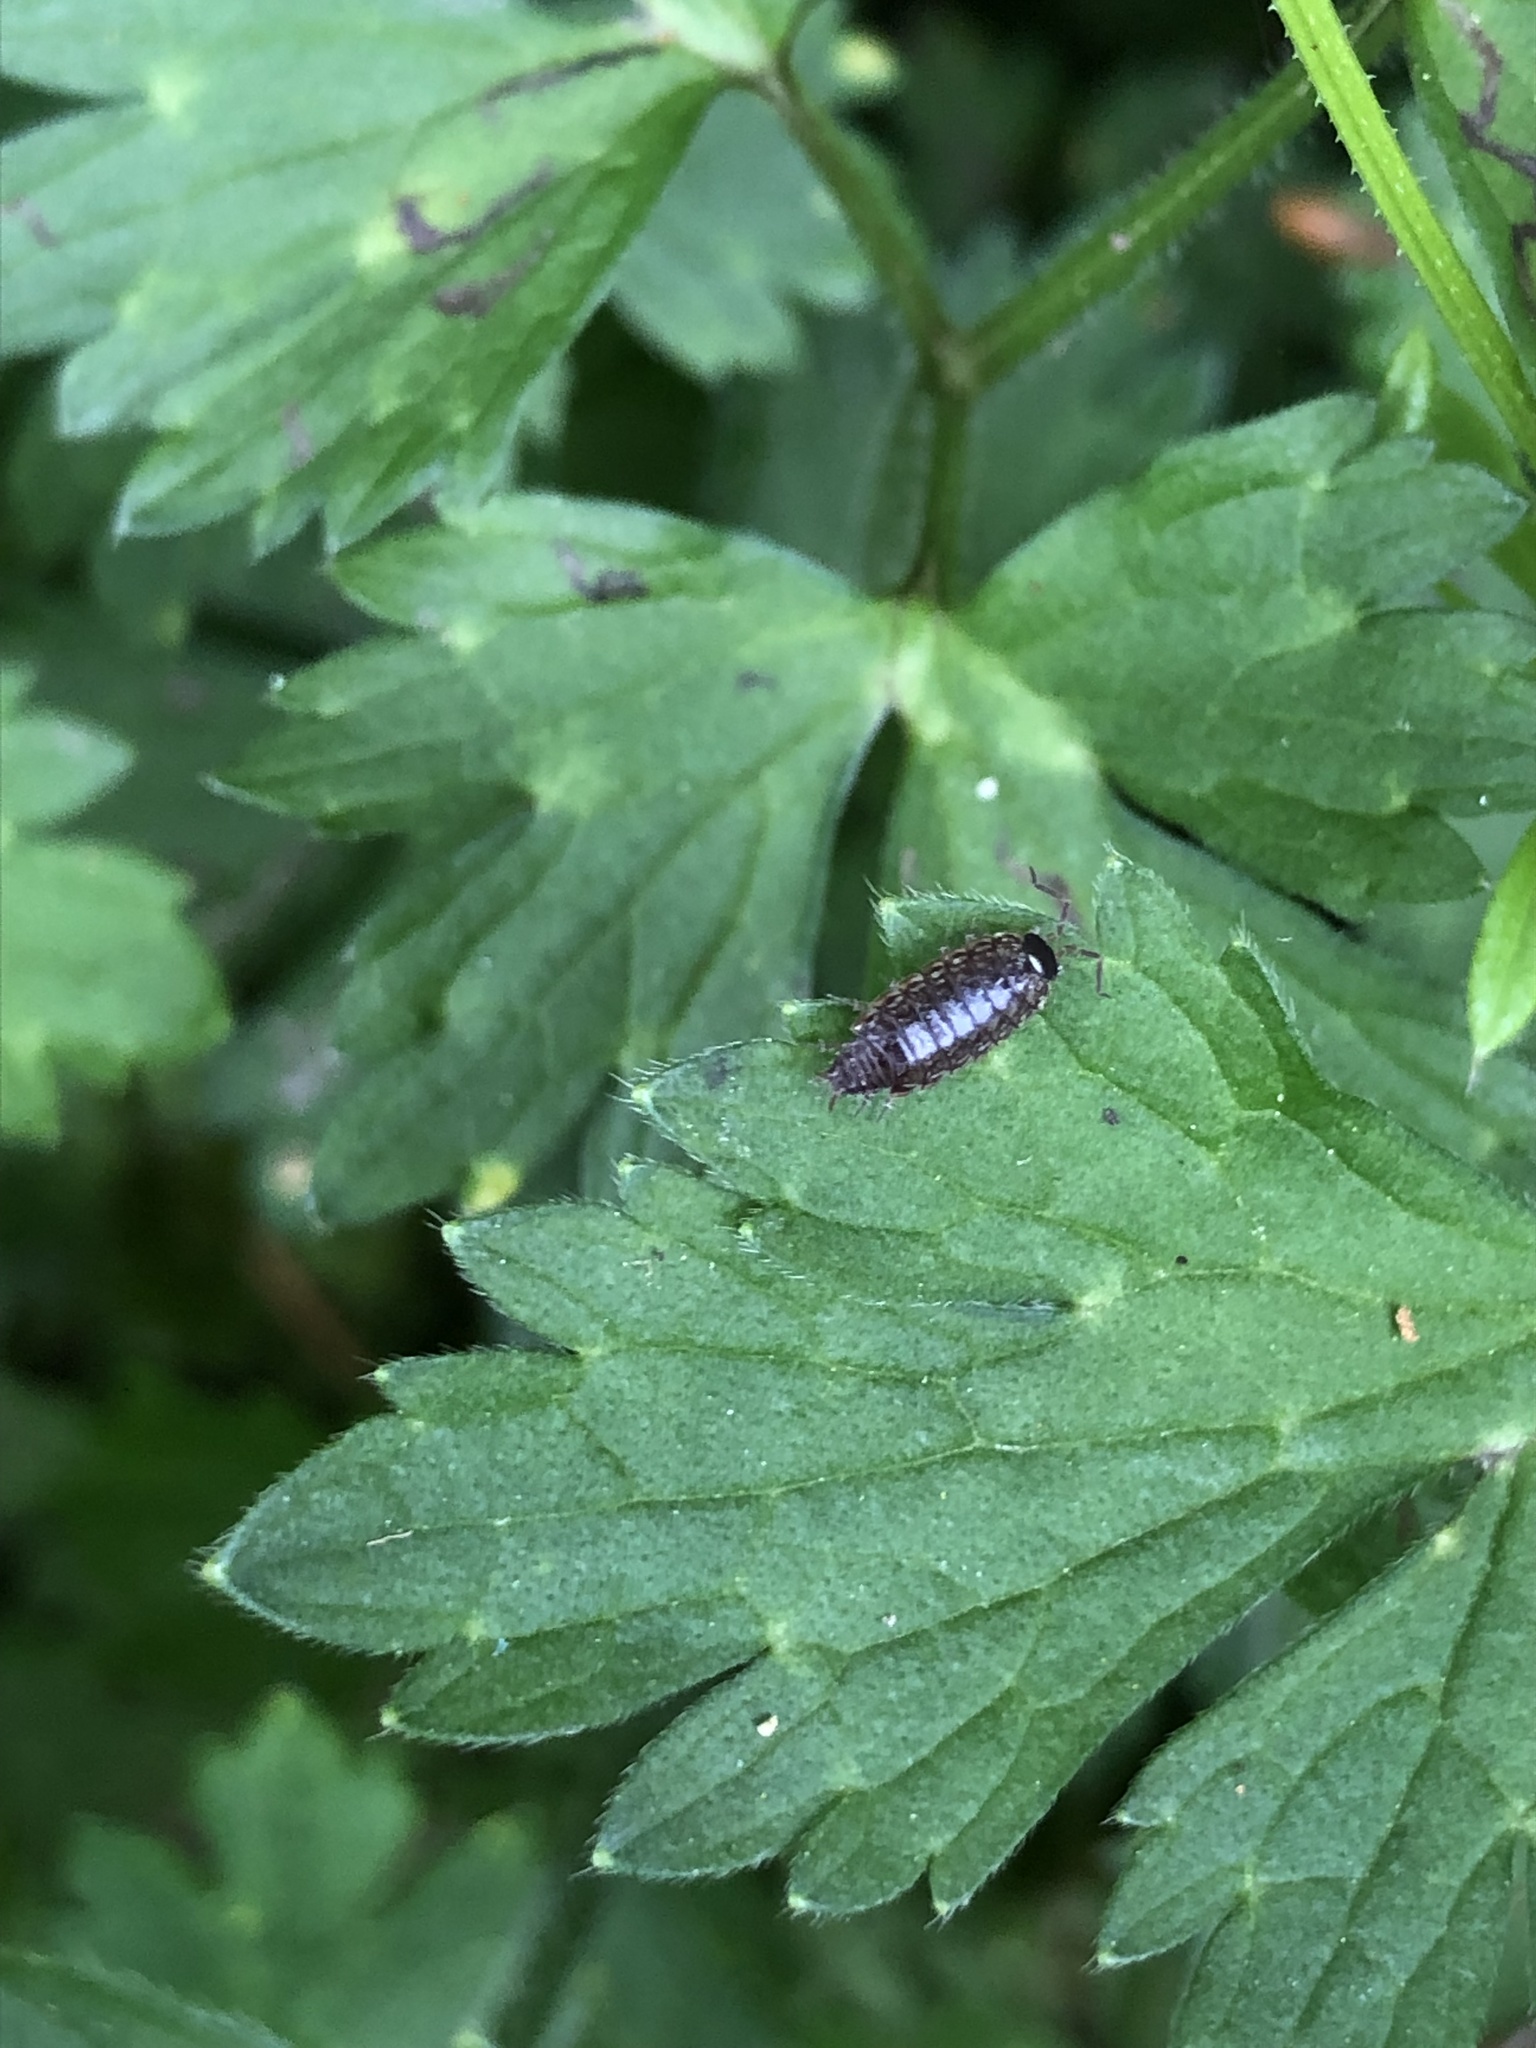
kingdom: Animalia
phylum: Arthropoda
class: Malacostraca
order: Isopoda
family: Philosciidae
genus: Philoscia
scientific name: Philoscia muscorum
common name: Common striped woodlouse
